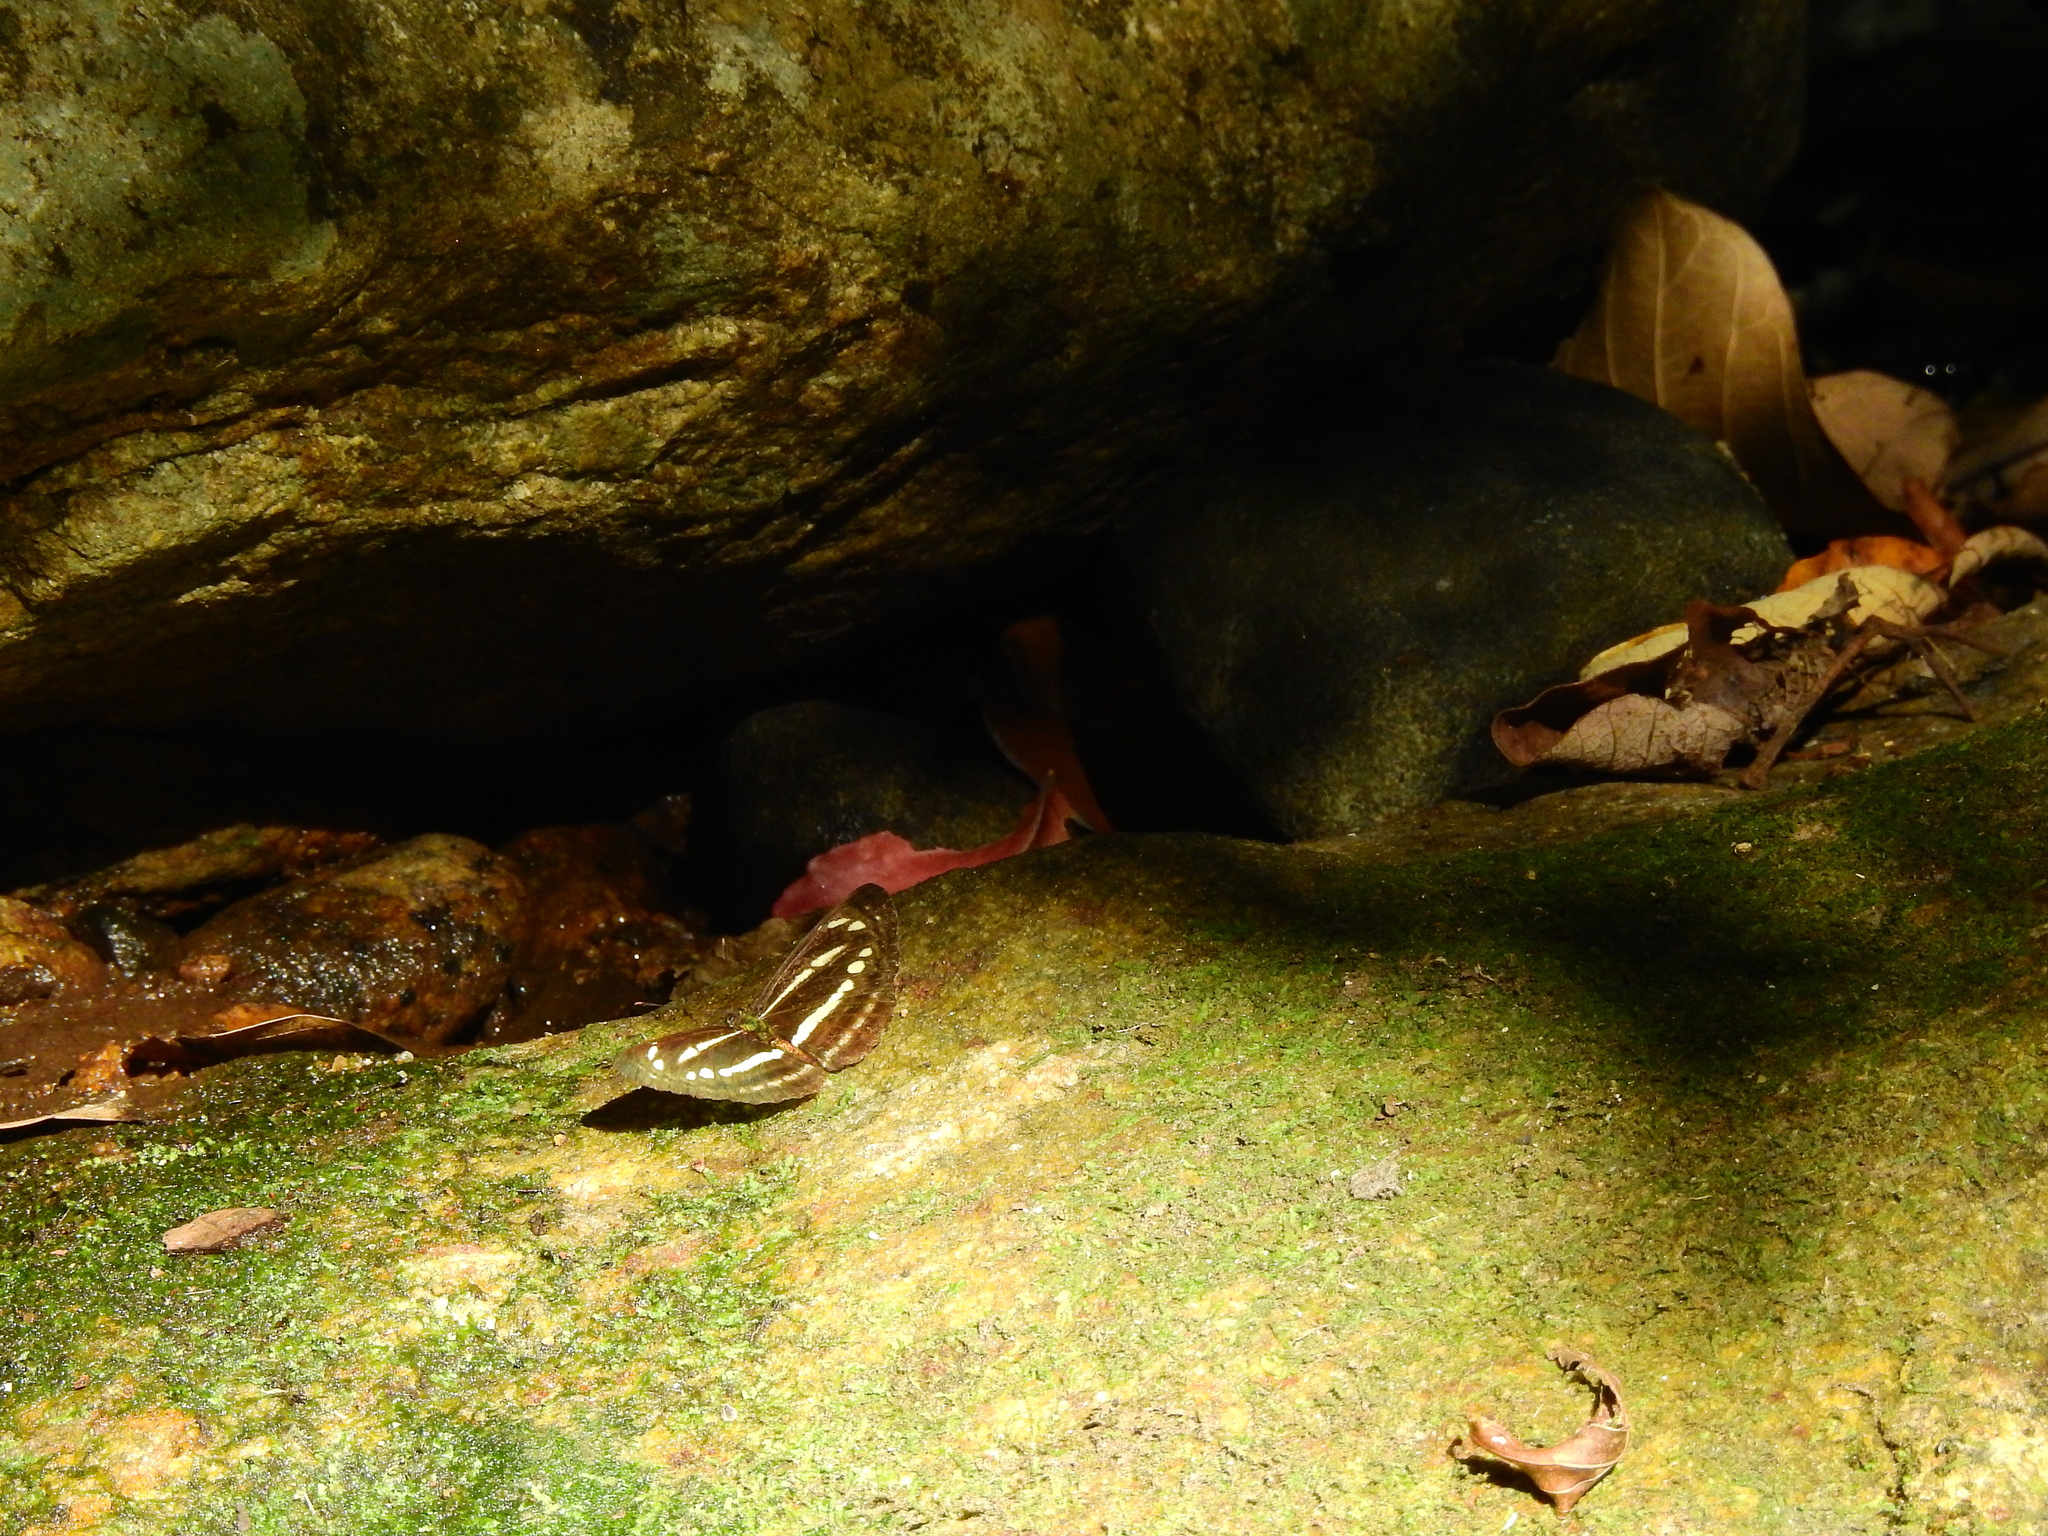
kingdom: Animalia
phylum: Arthropoda
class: Insecta
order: Lepidoptera
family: Nymphalidae
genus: Neptis
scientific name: Neptis clinia
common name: Southern sullied sailer
